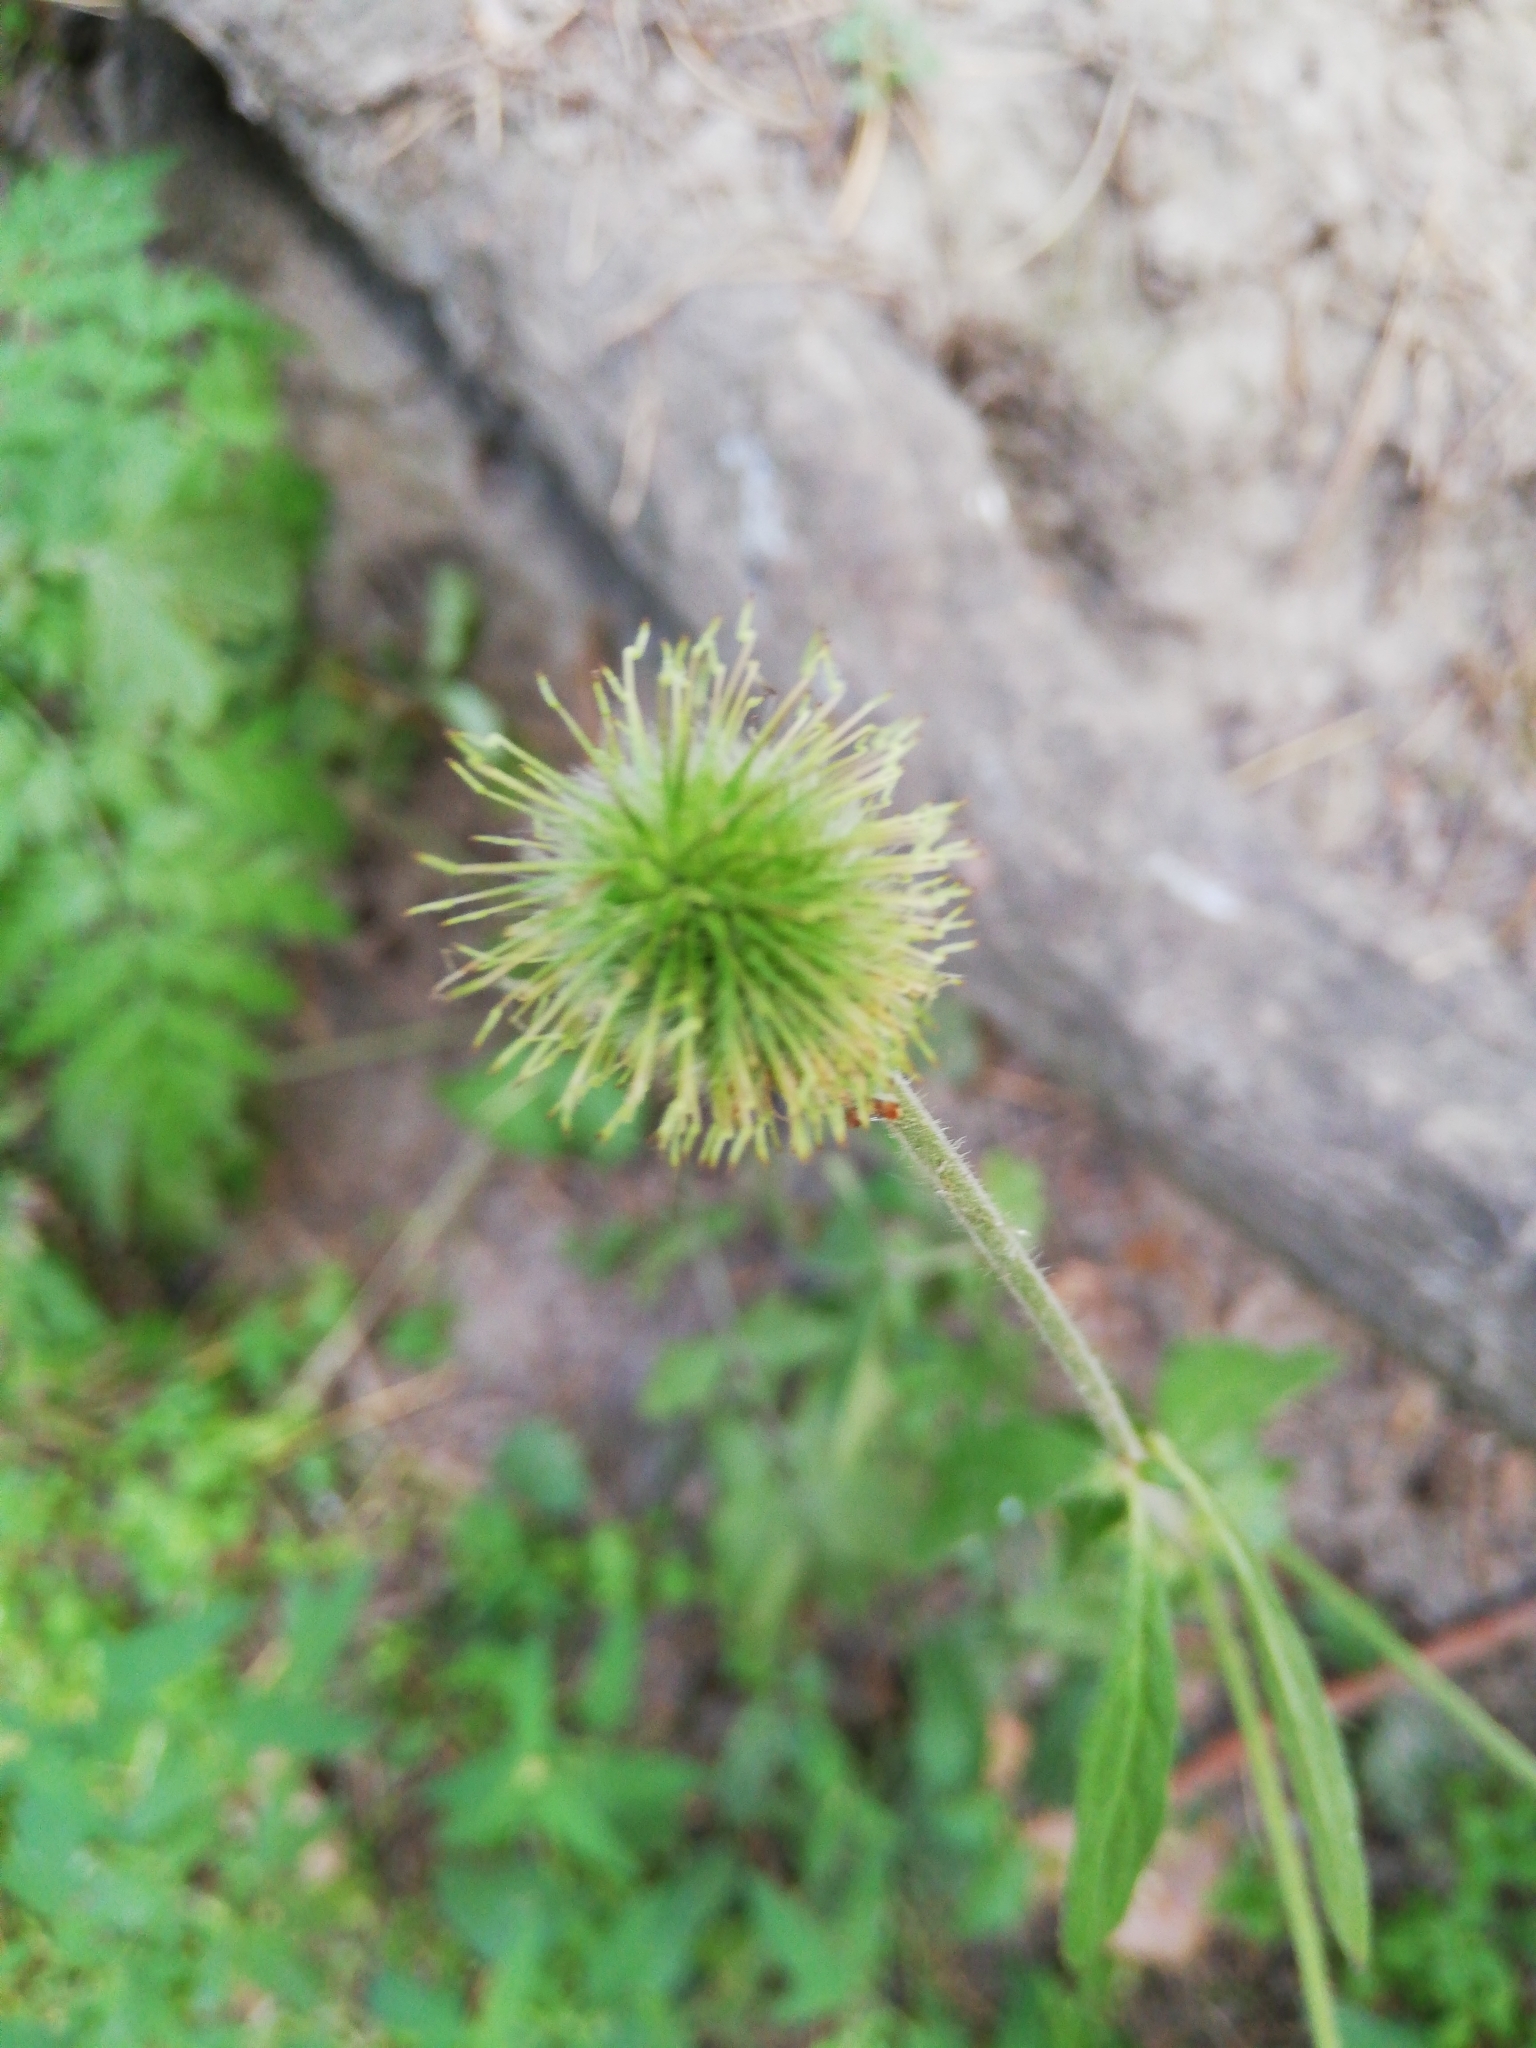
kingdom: Plantae
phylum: Tracheophyta
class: Magnoliopsida
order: Rosales
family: Rosaceae
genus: Geum
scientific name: Geum aleppicum
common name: Yellow avens
